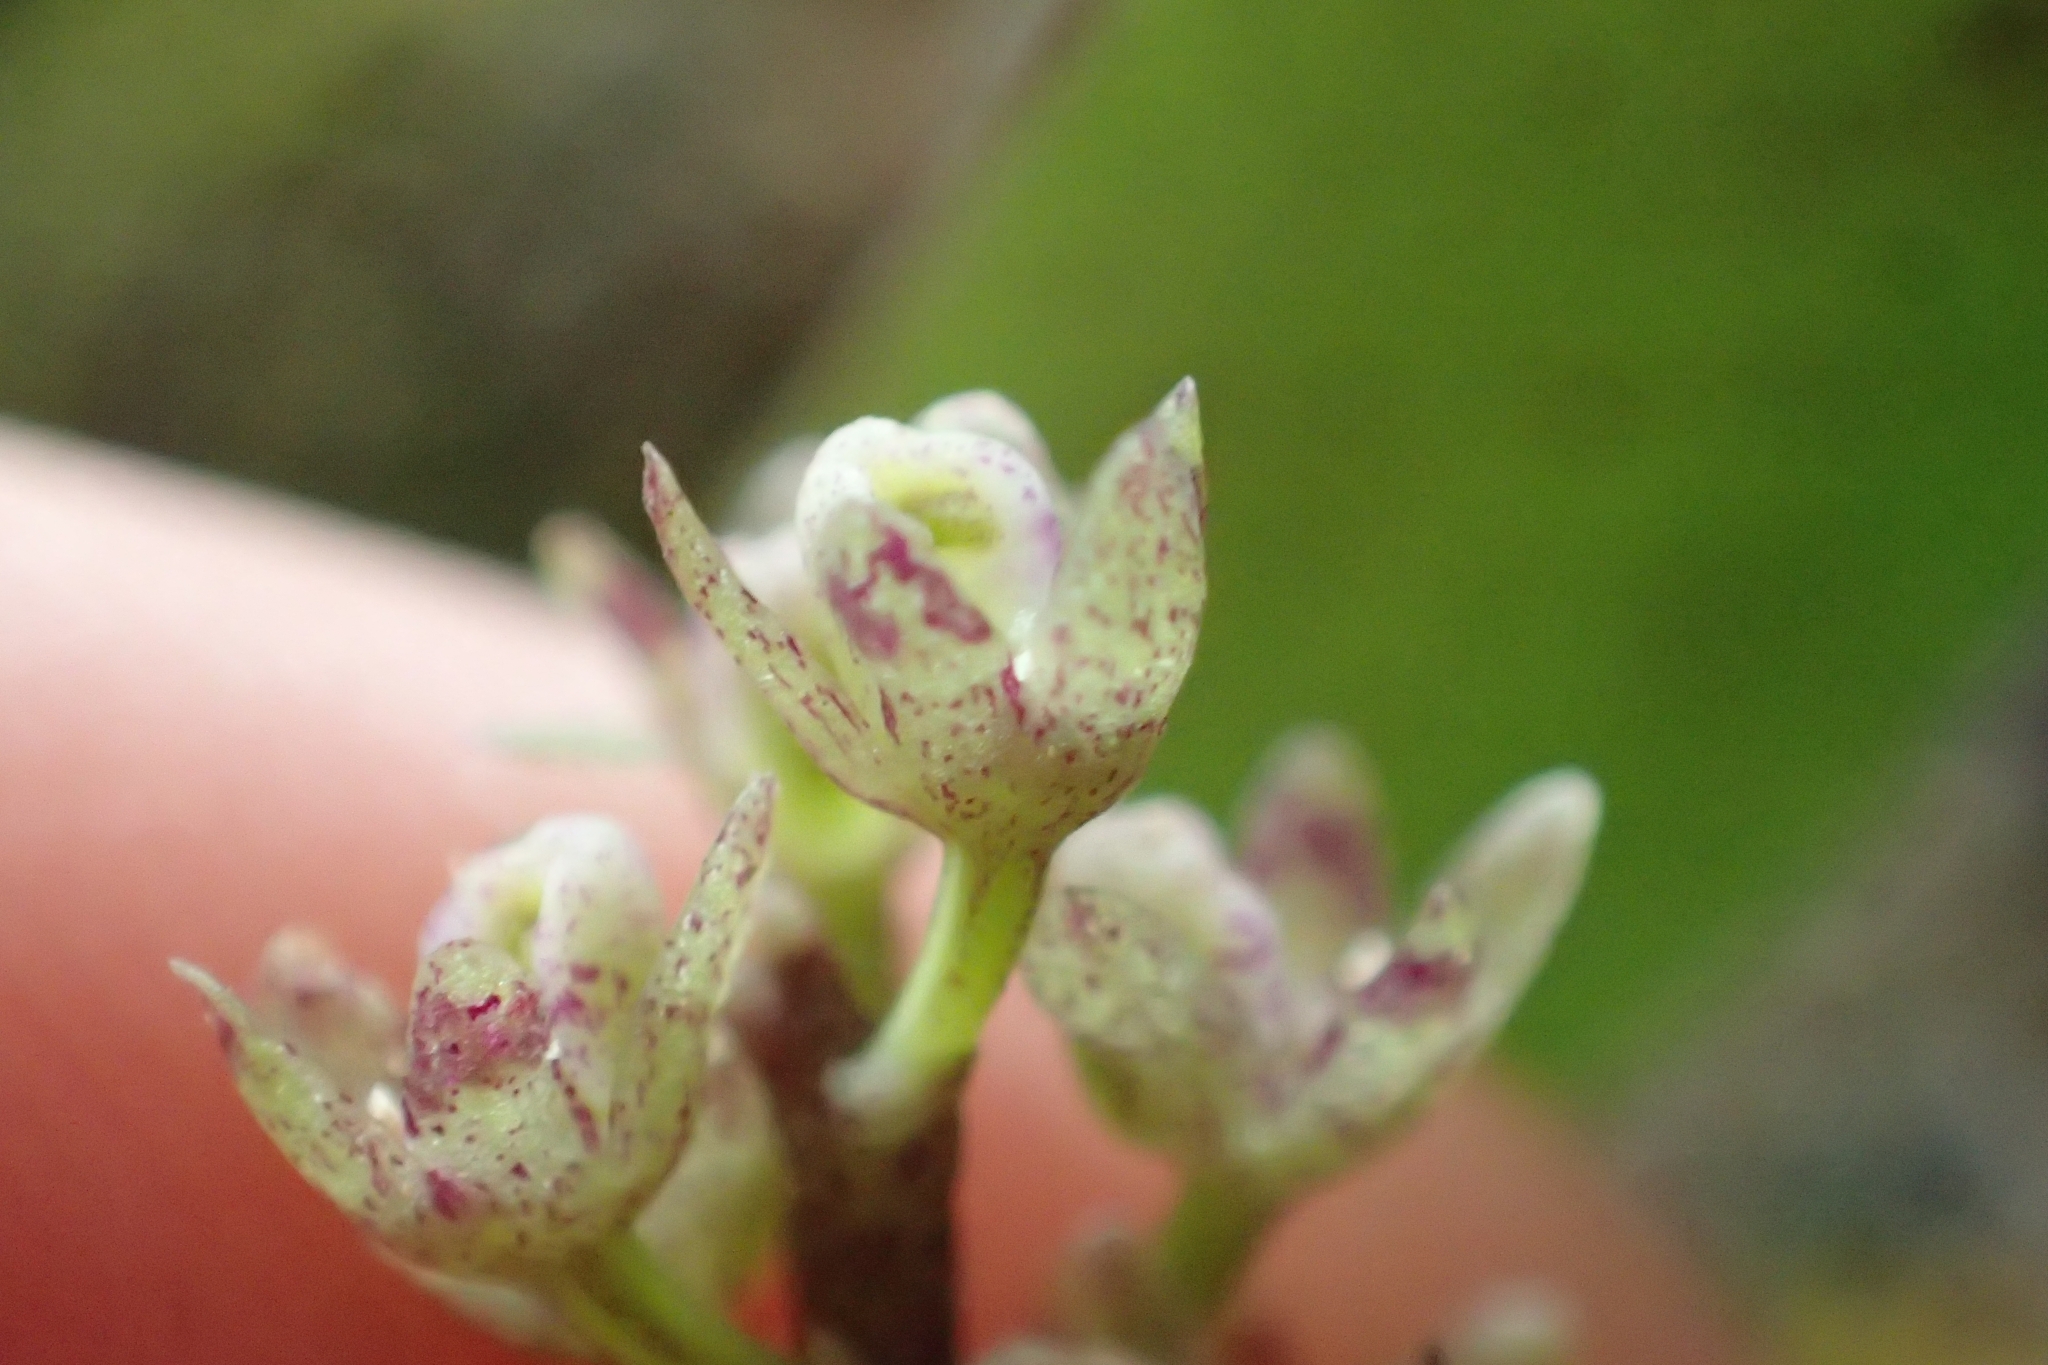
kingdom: Plantae
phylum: Tracheophyta
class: Liliopsida
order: Asparagales
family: Orchidaceae
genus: Drymoanthus
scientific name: Drymoanthus adversus
